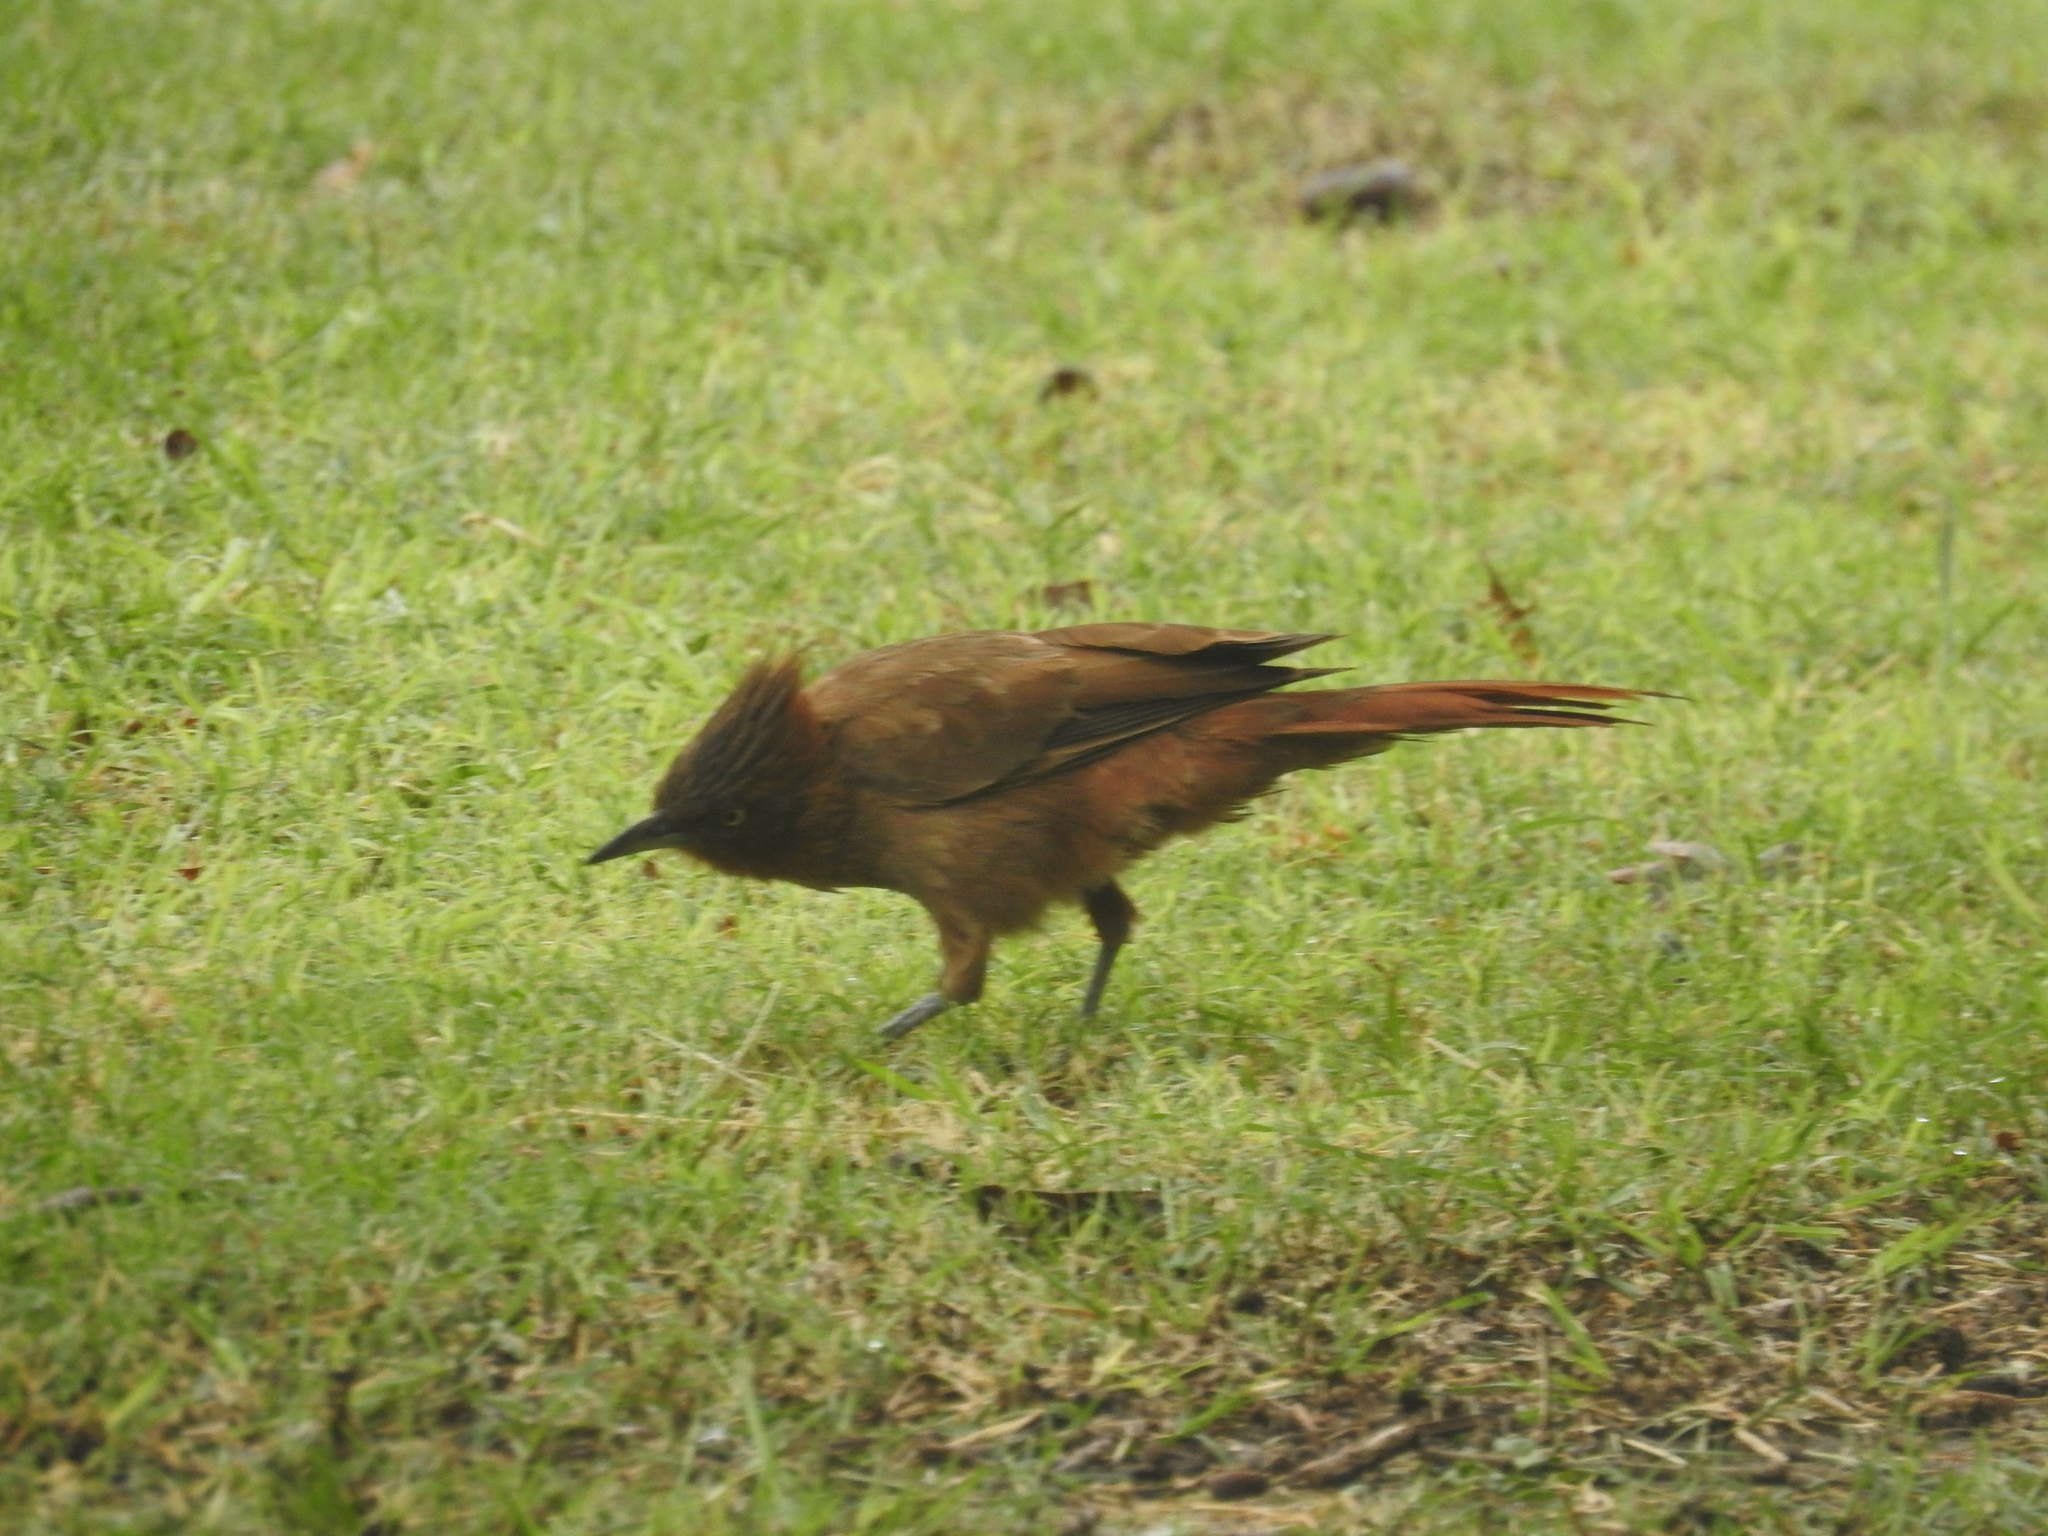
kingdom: Animalia
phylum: Chordata
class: Aves
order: Passeriformes
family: Furnariidae
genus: Pseudoseisura
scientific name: Pseudoseisura lophotes
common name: Brown cacholote
